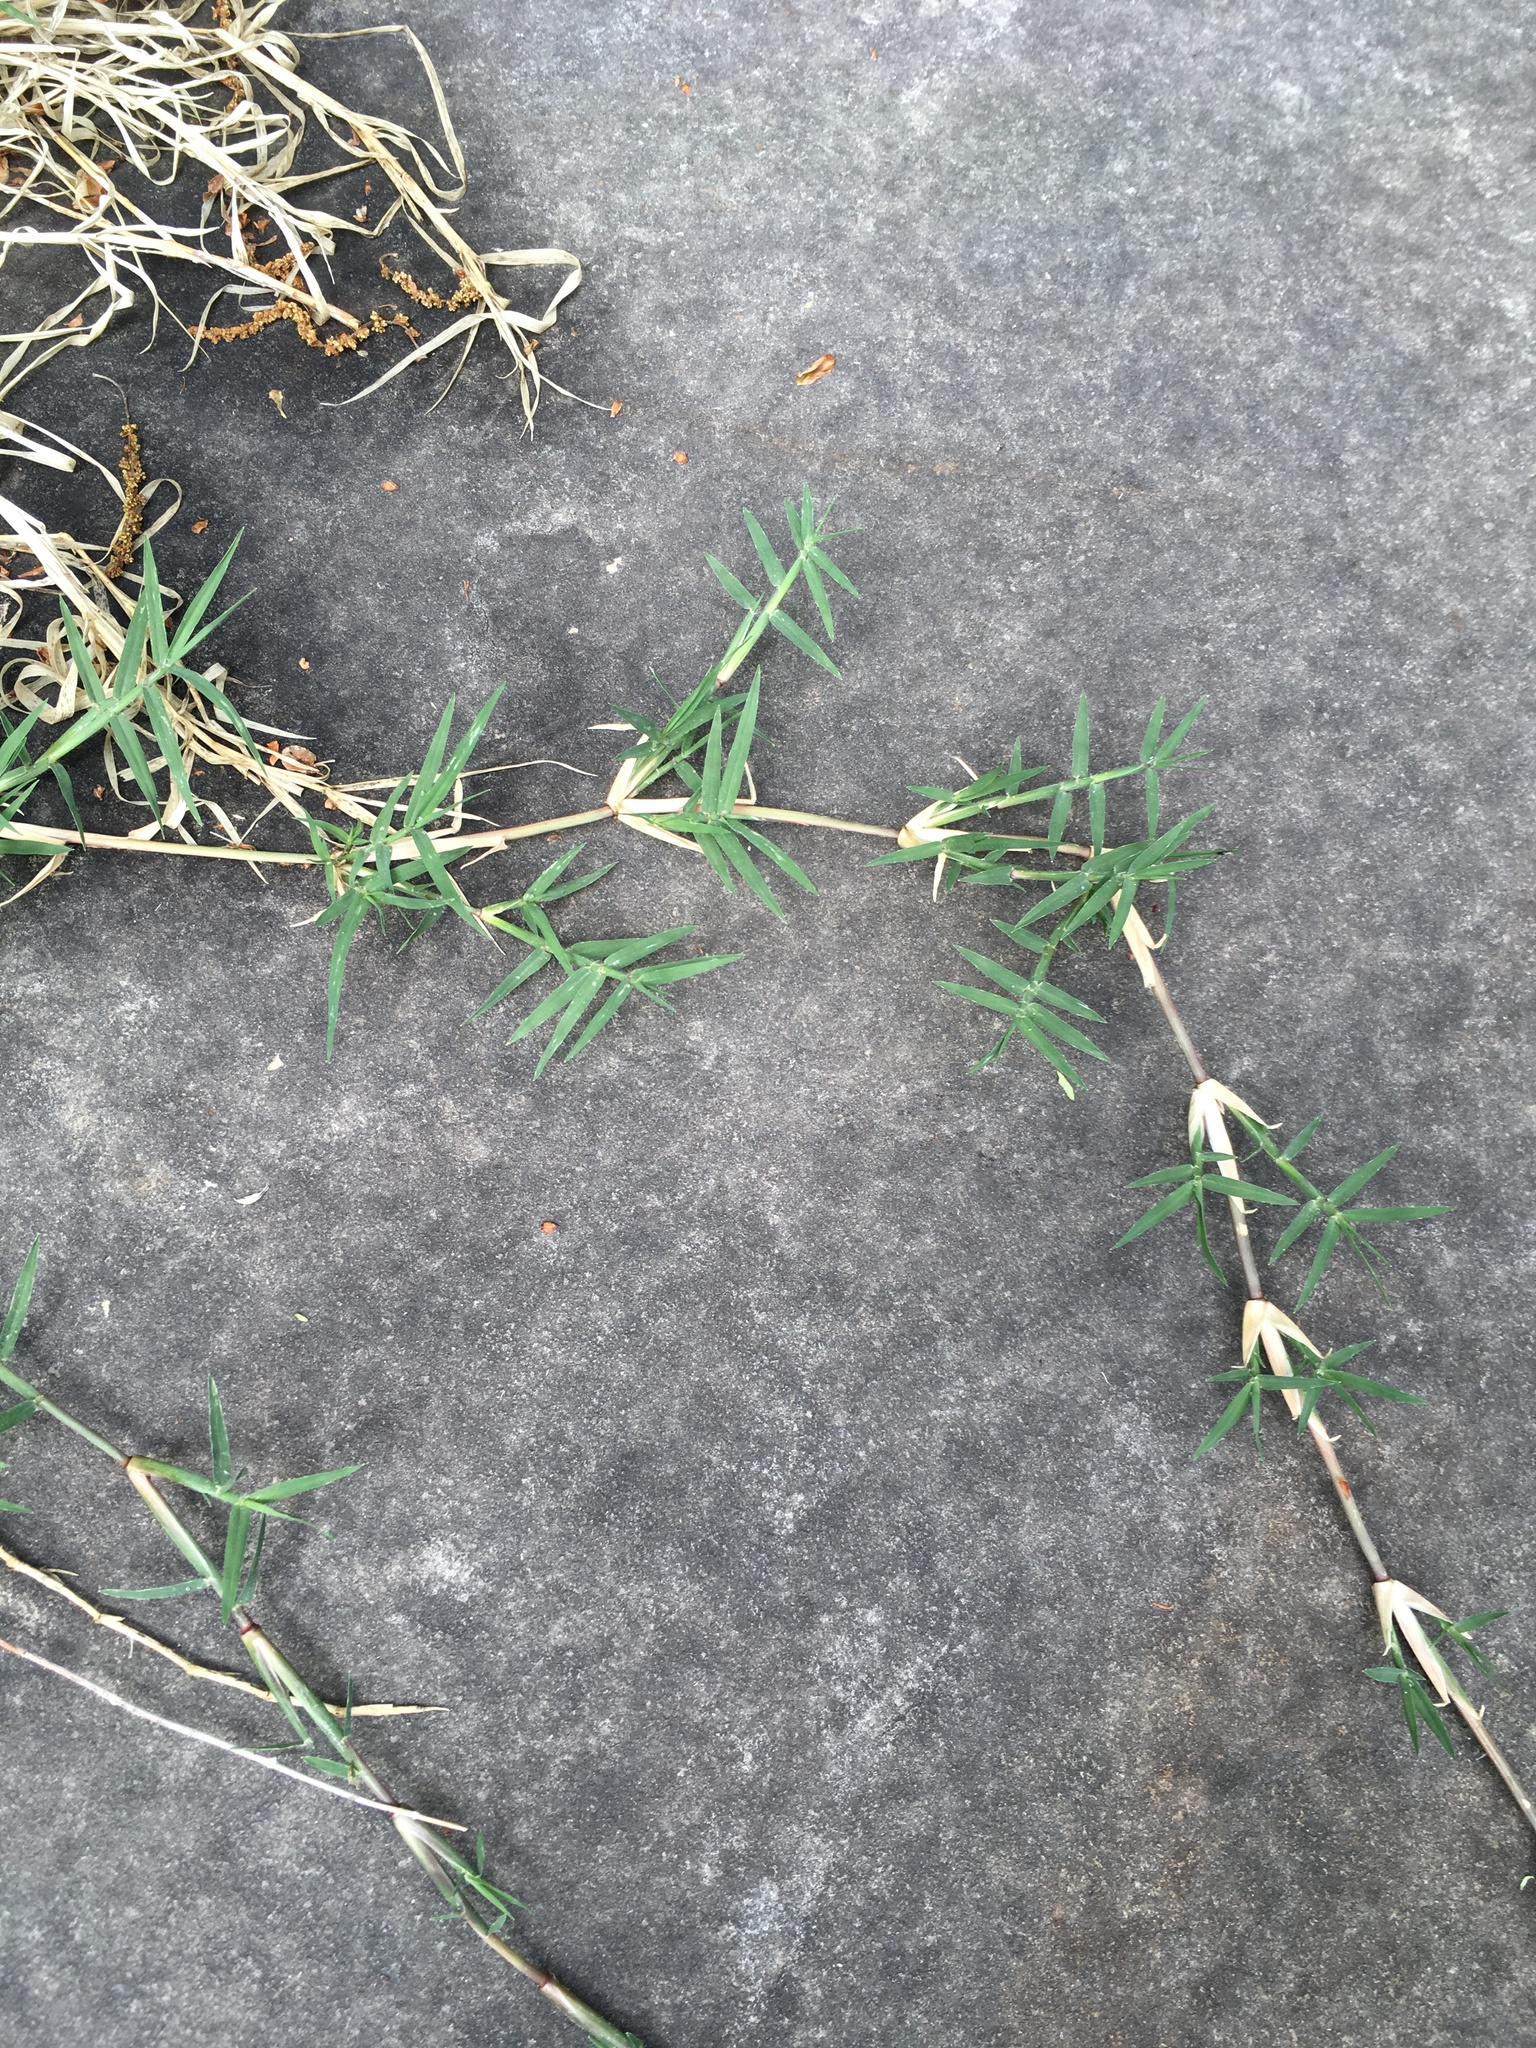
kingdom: Plantae
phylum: Tracheophyta
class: Liliopsida
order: Poales
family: Poaceae
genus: Cynodon
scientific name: Cynodon dactylon
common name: Bermuda grass
